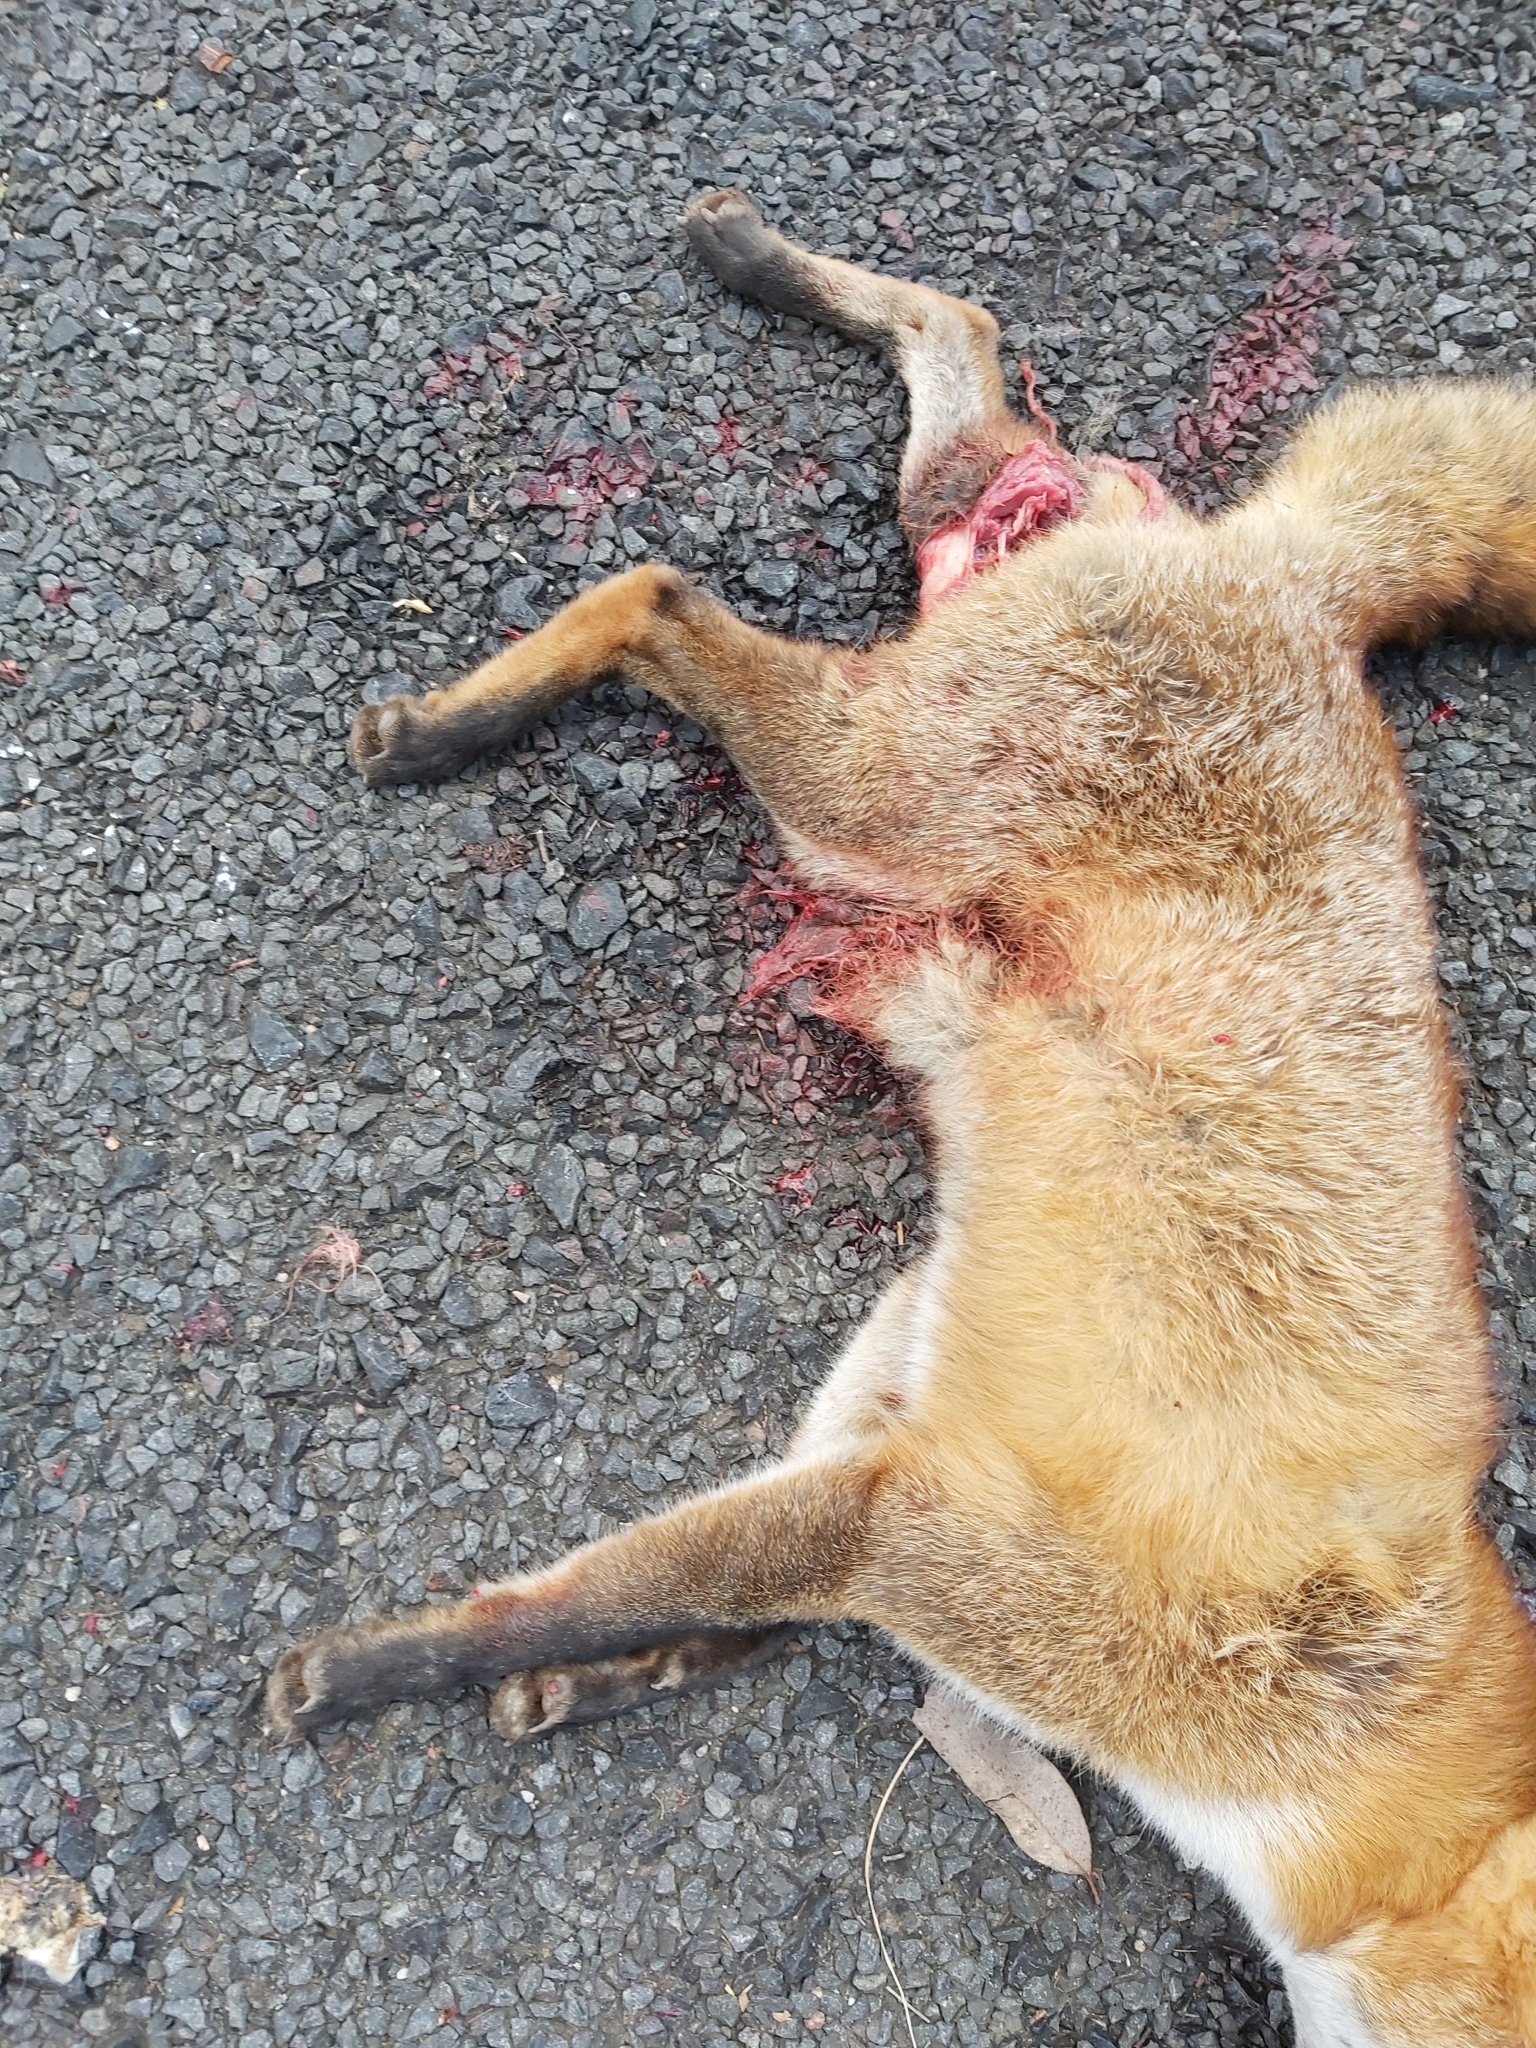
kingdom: Animalia
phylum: Chordata
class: Mammalia
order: Carnivora
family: Canidae
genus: Vulpes
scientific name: Vulpes vulpes
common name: Red fox
